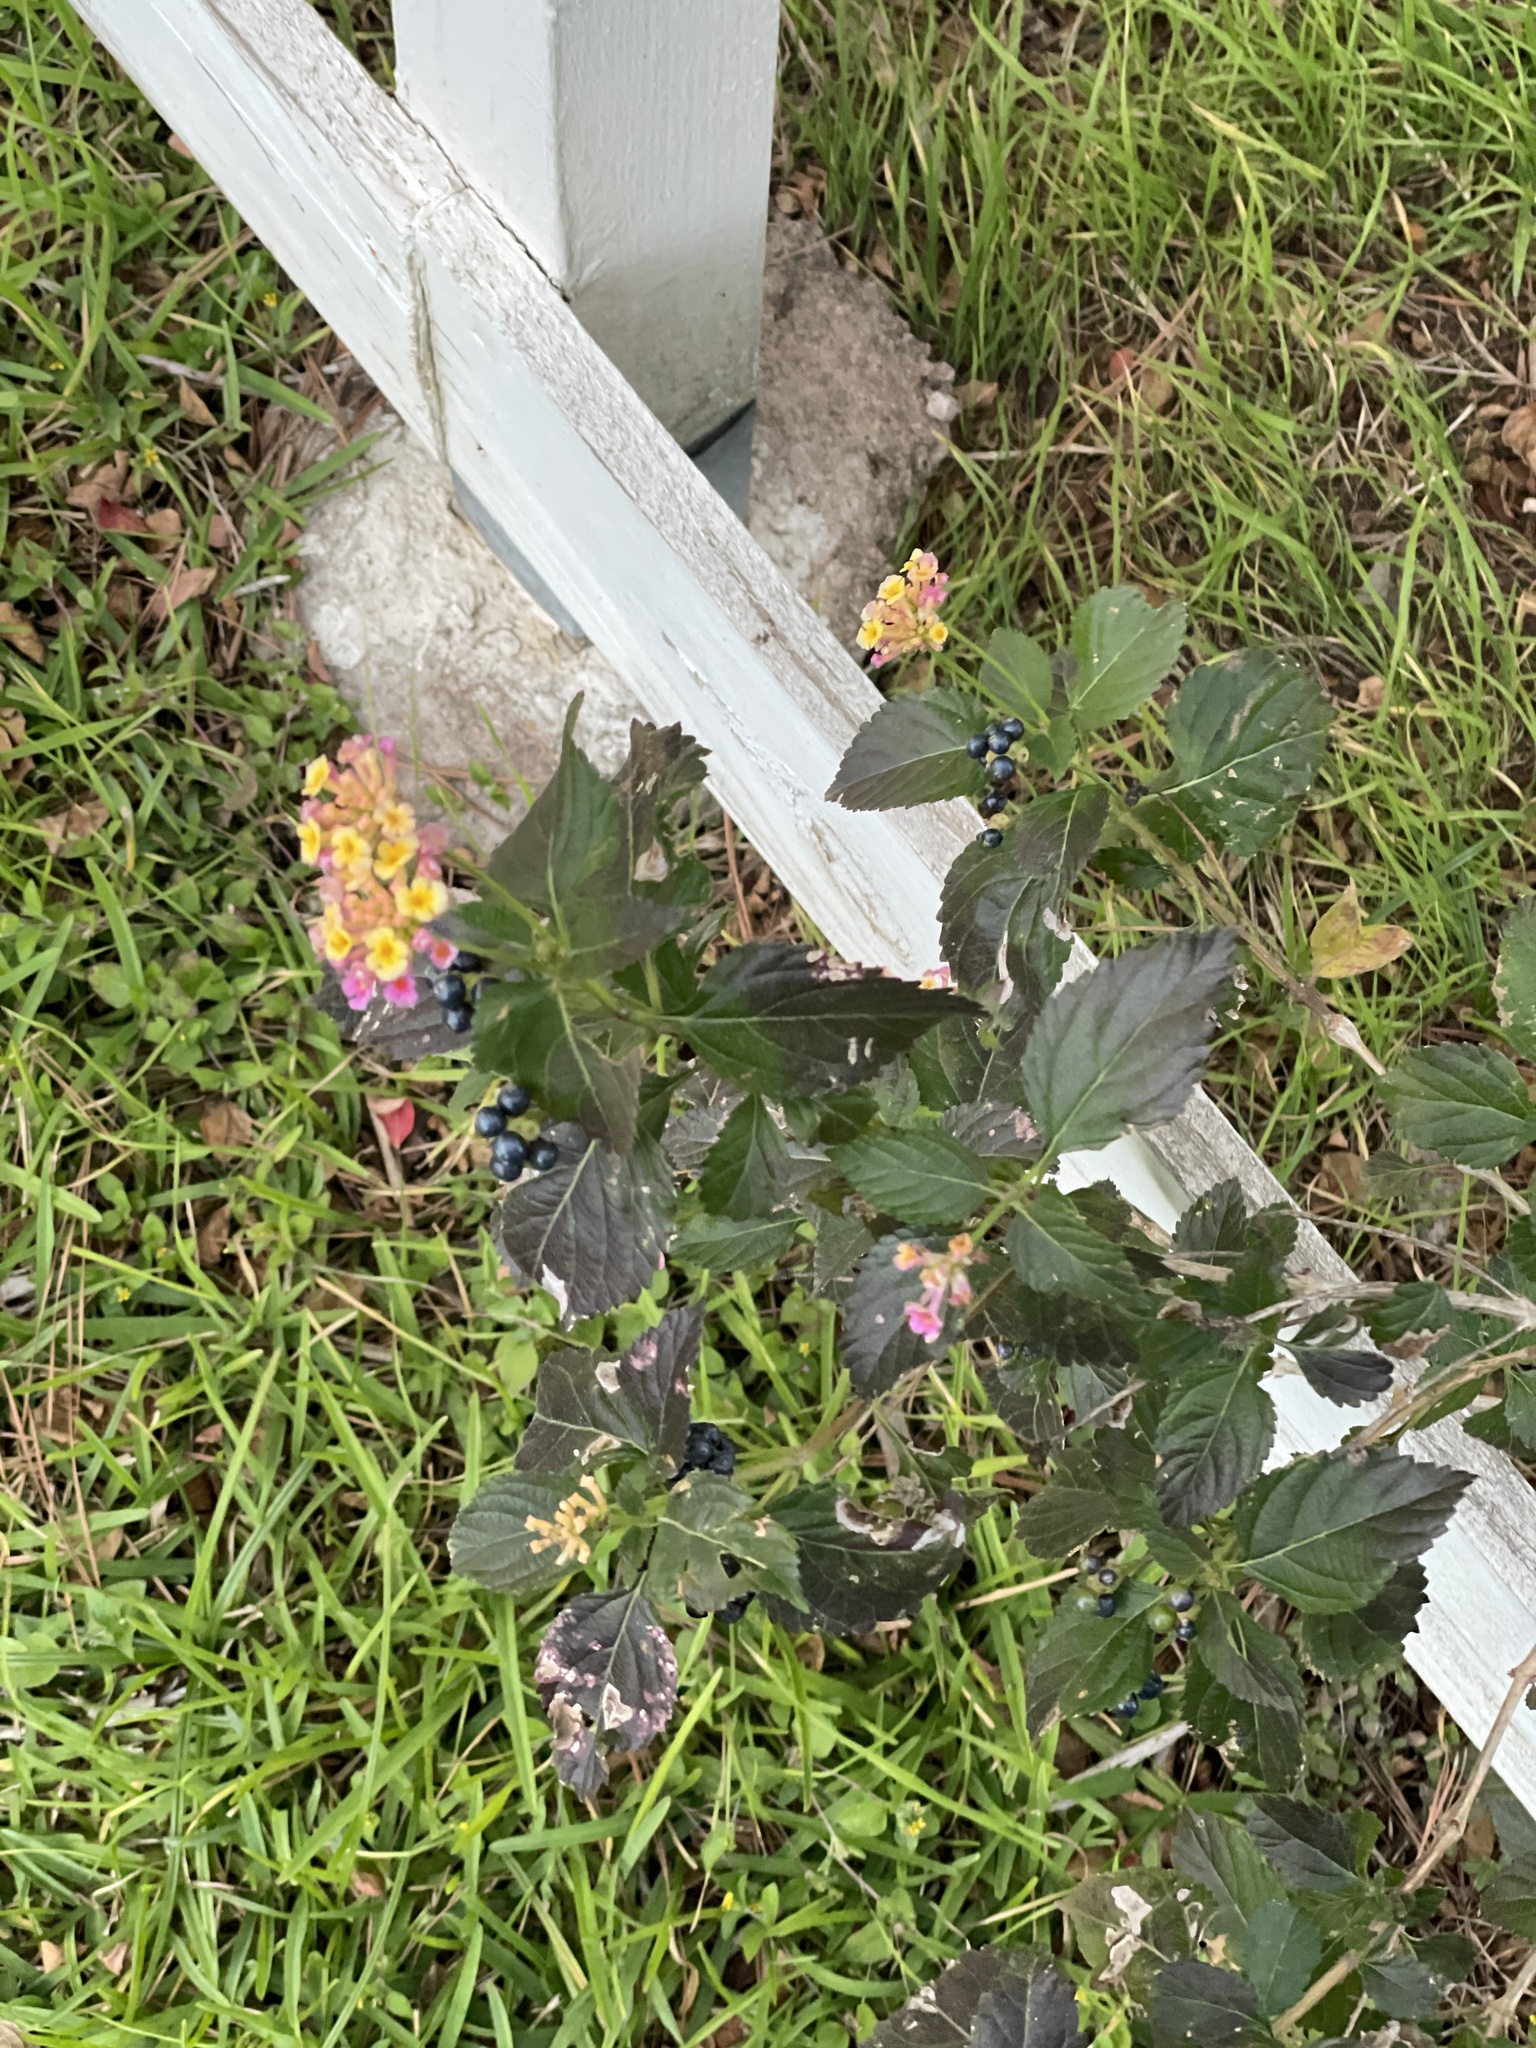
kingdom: Plantae
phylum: Tracheophyta
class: Magnoliopsida
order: Lamiales
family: Verbenaceae
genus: Lantana
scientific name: Lantana strigocamara
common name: Lantana
